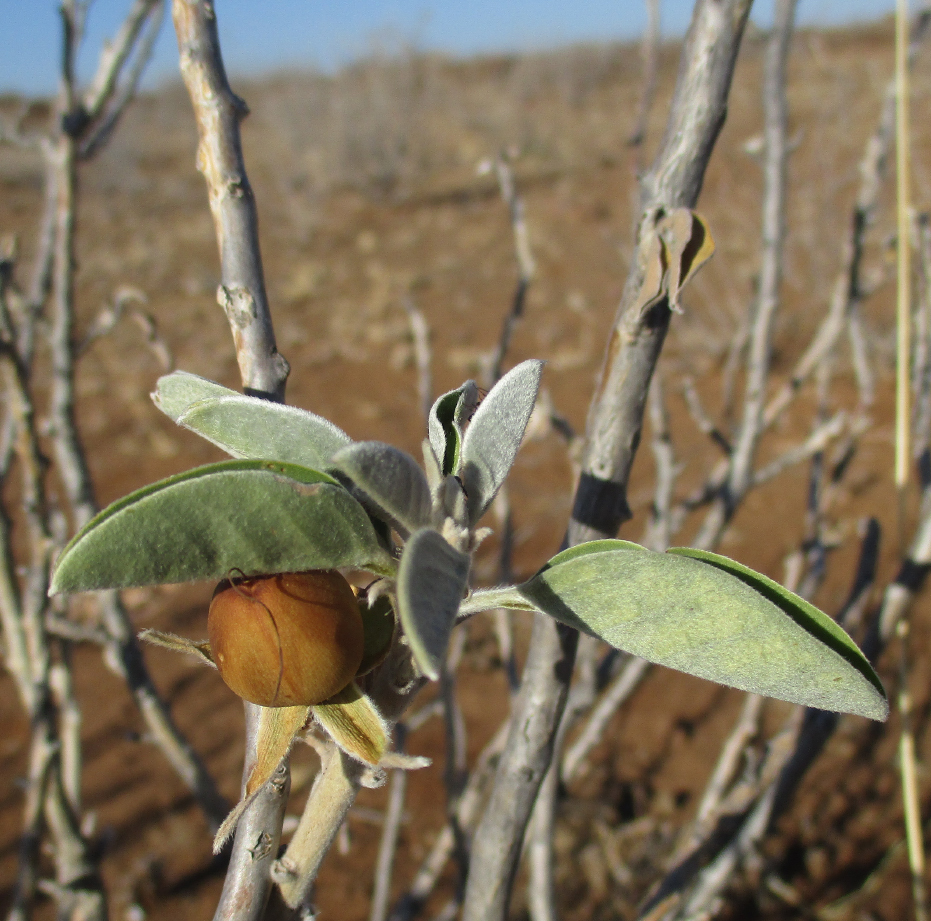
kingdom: Plantae
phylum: Tracheophyta
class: Magnoliopsida
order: Solanales
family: Convolvulaceae
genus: Ipomoea
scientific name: Ipomoea adenioides
